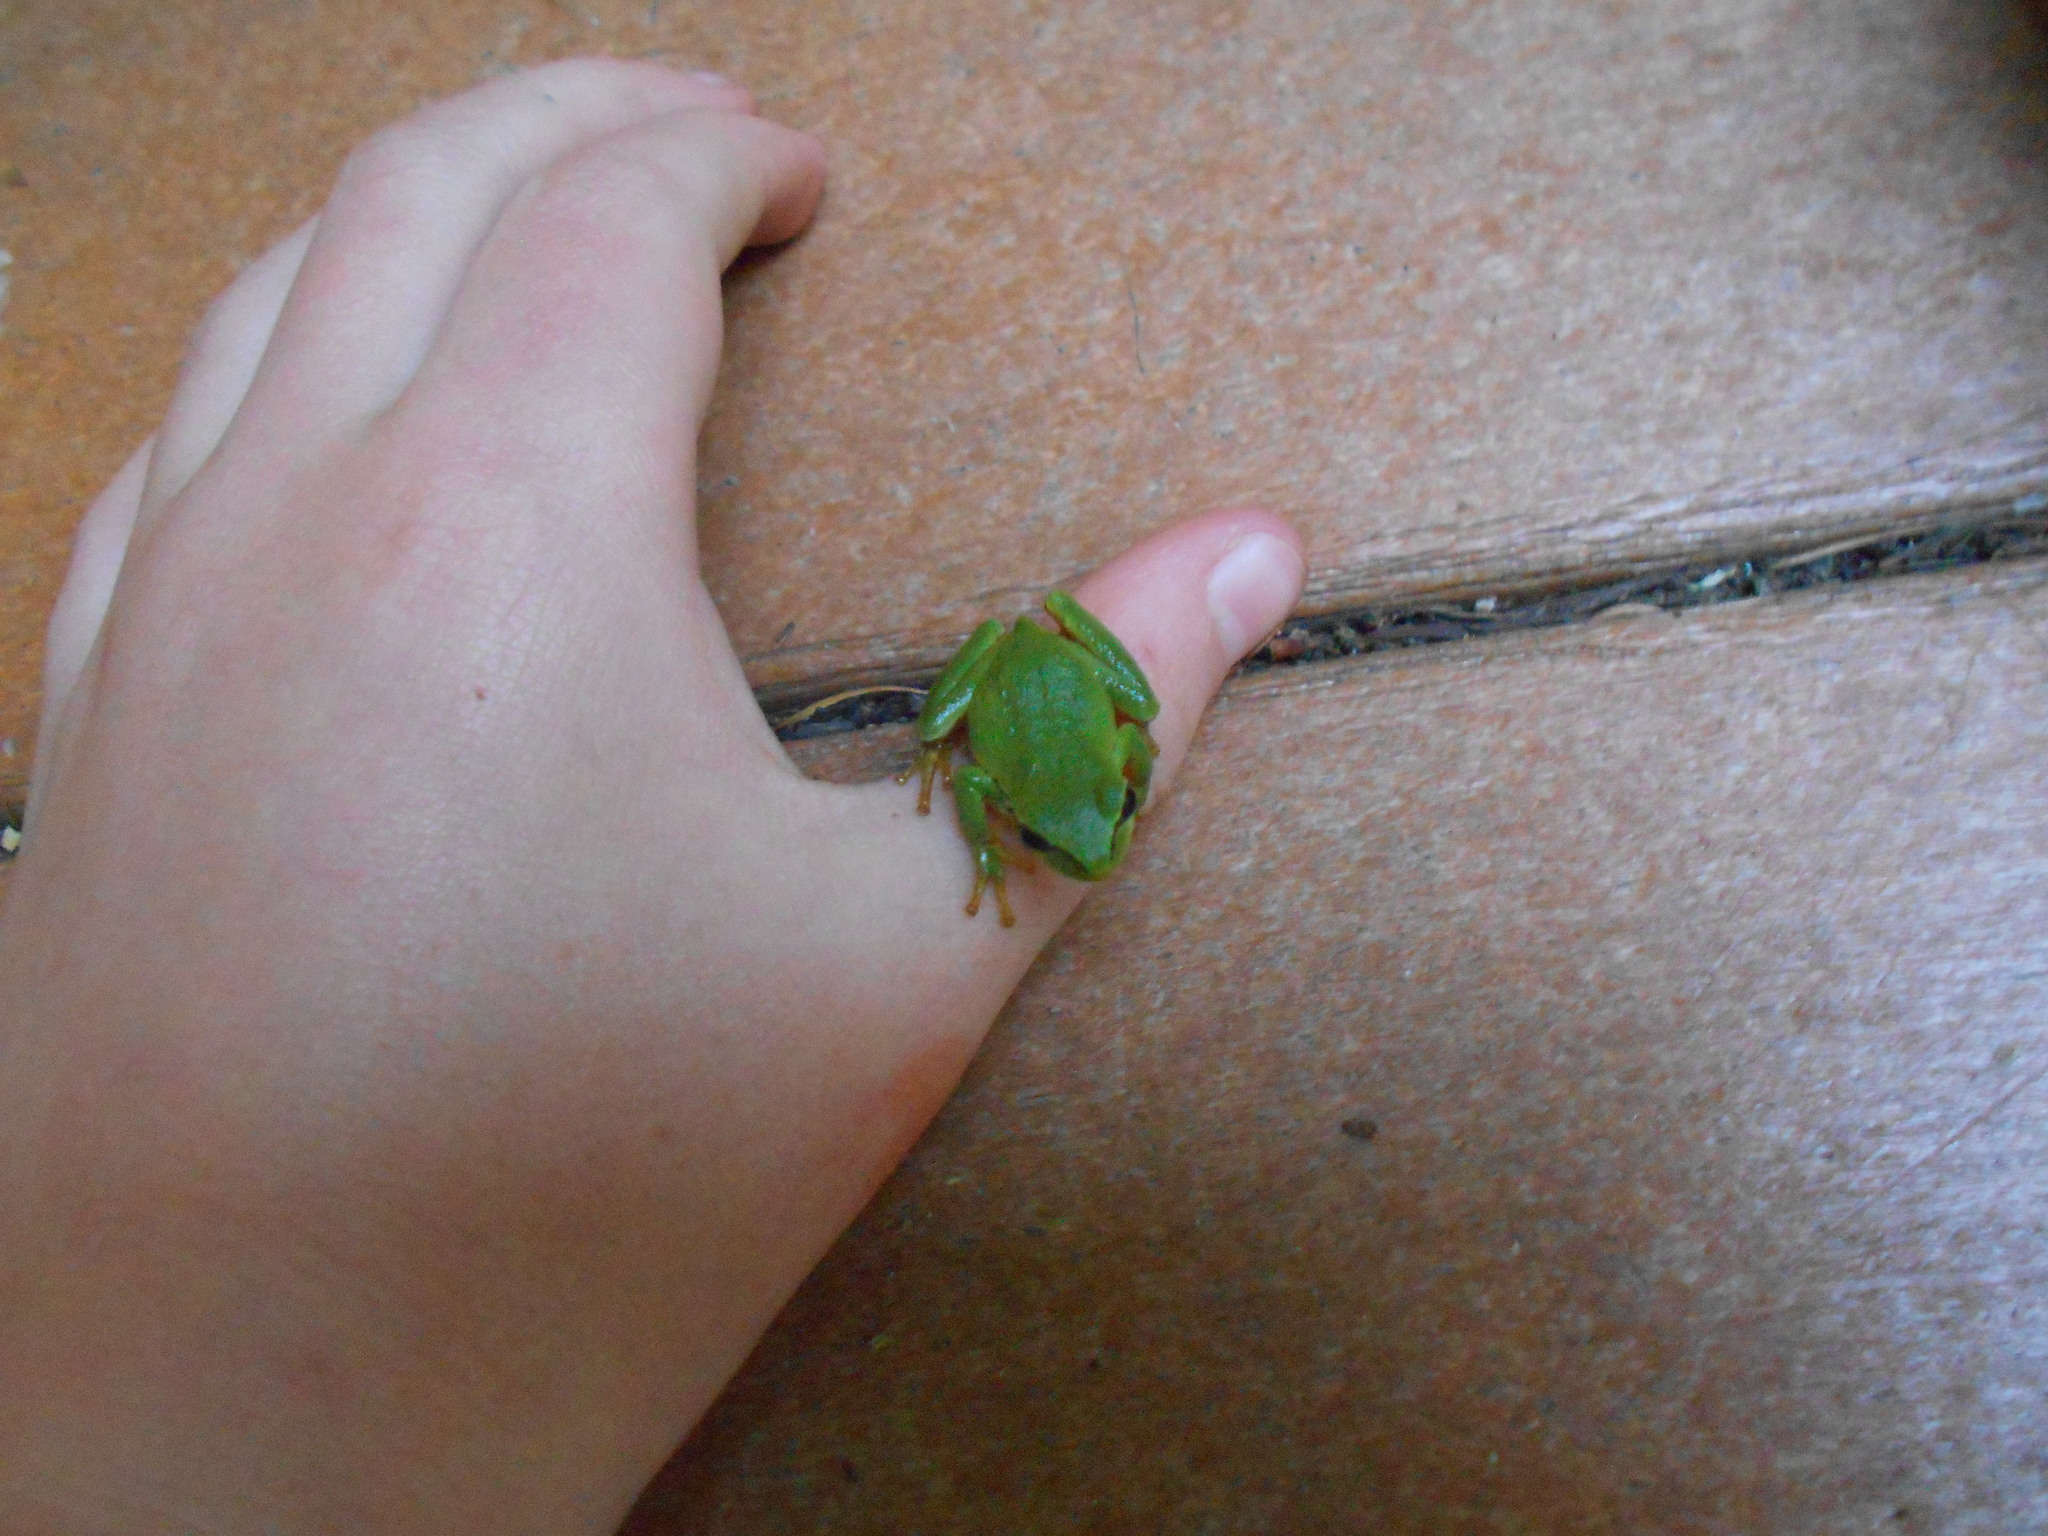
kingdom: Animalia
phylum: Chordata
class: Amphibia
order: Anura
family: Hylidae
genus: Pseudacris
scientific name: Pseudacris regilla
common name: Pacific chorus frog
